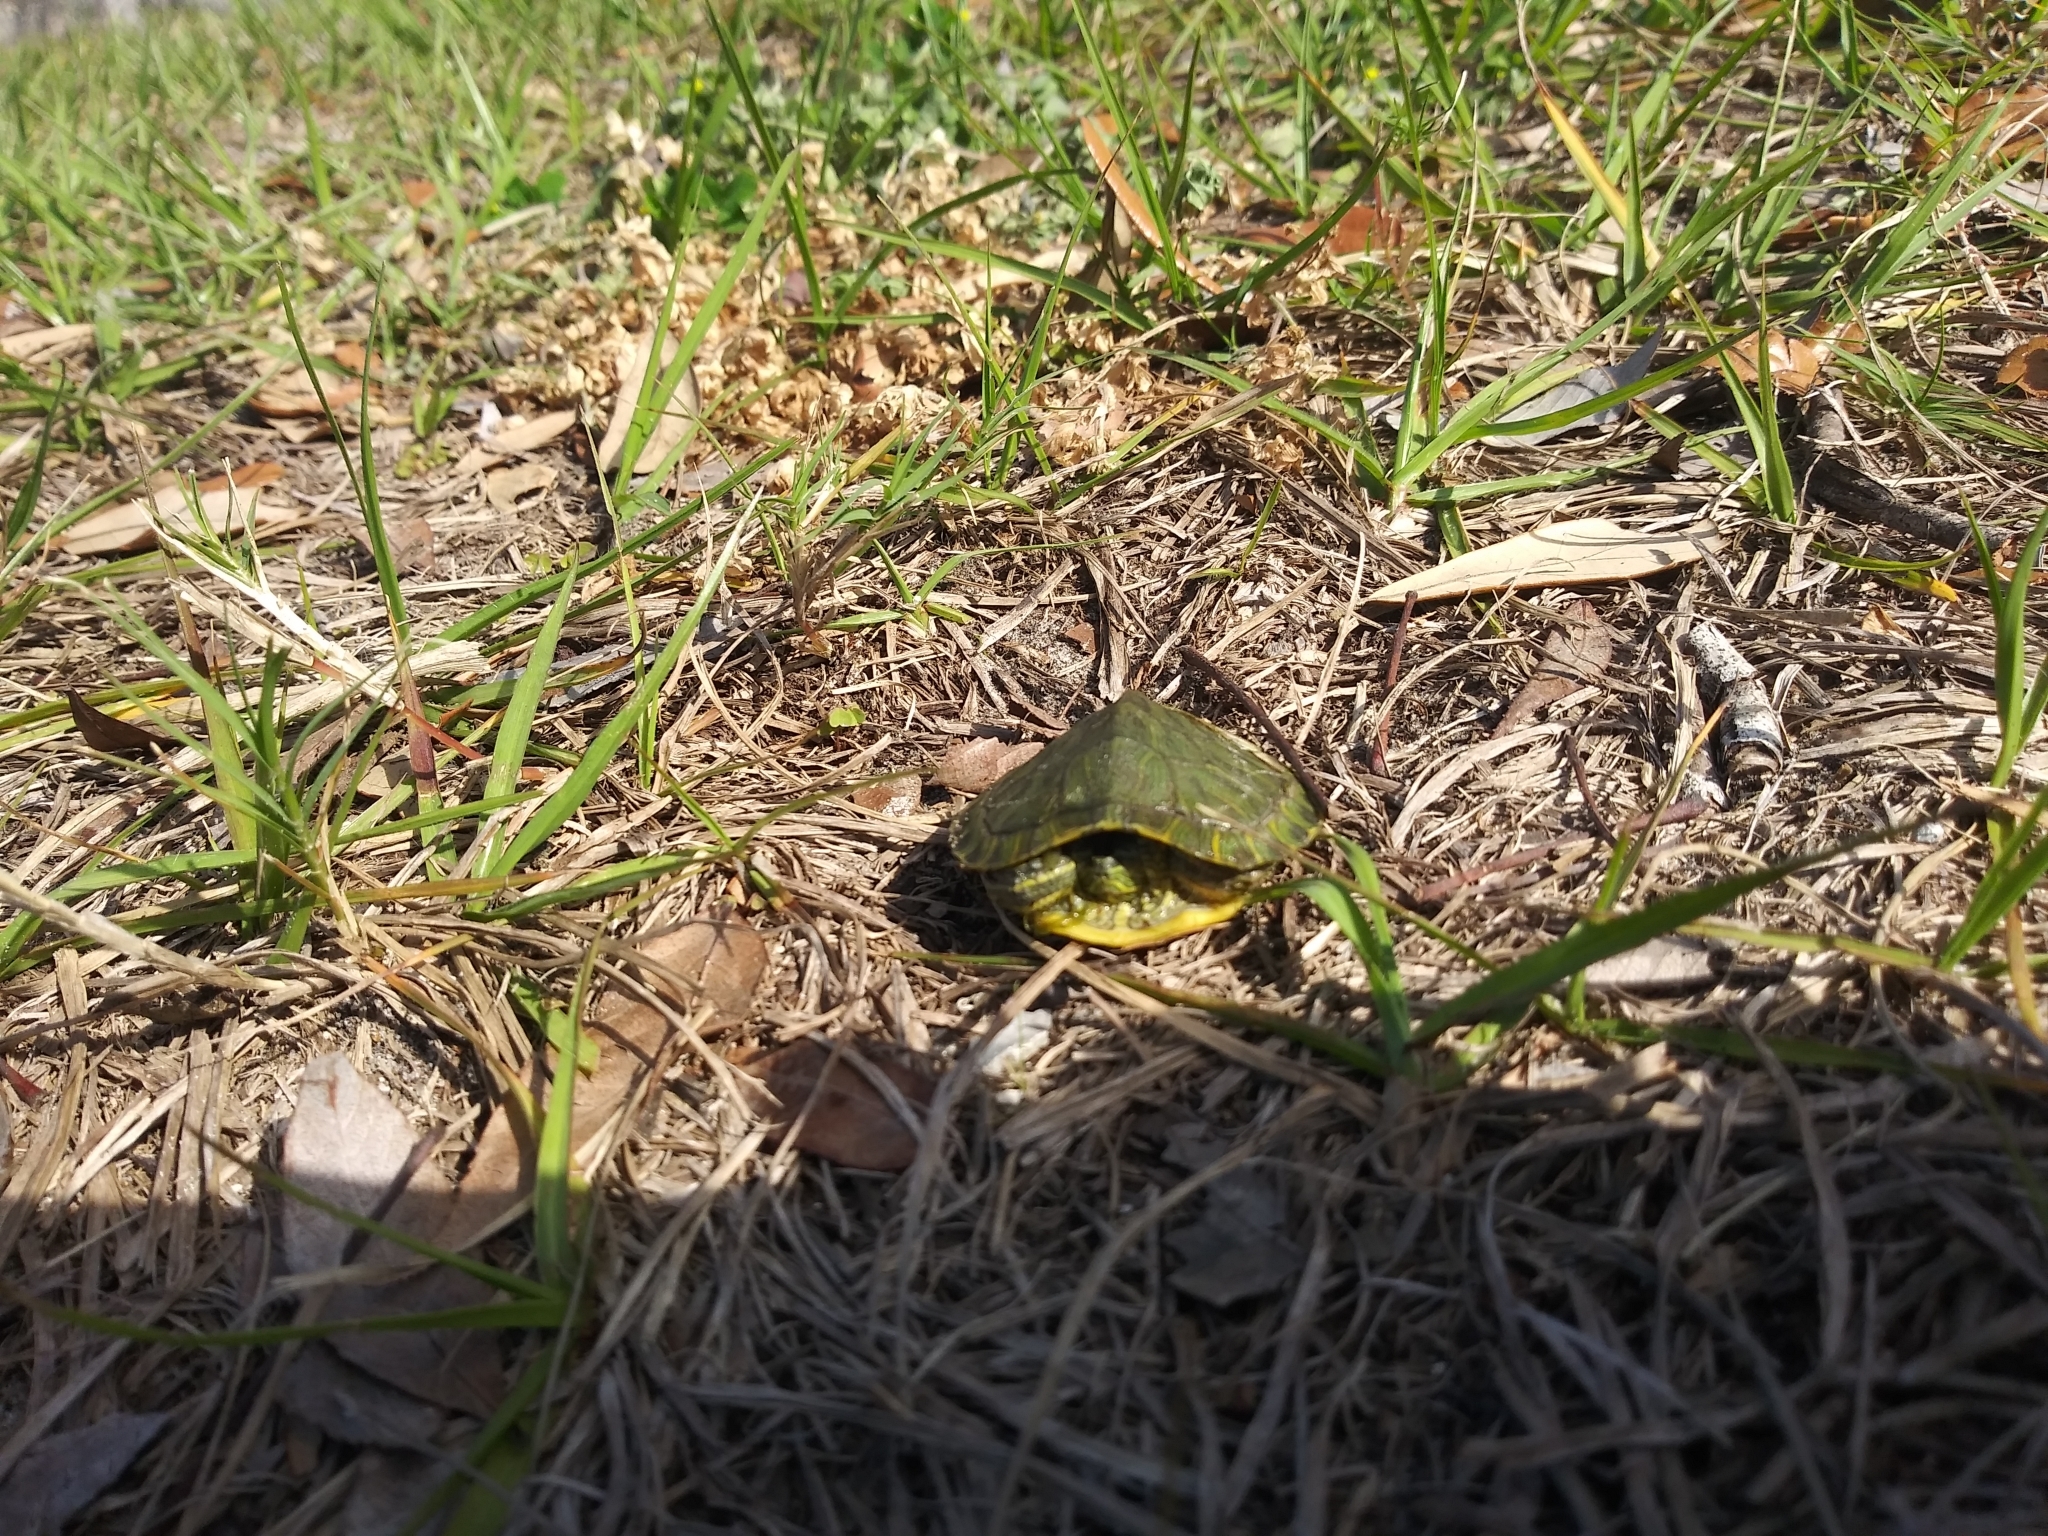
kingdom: Animalia
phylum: Chordata
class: Testudines
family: Emydidae
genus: Trachemys
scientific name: Trachemys scripta
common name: Slider
